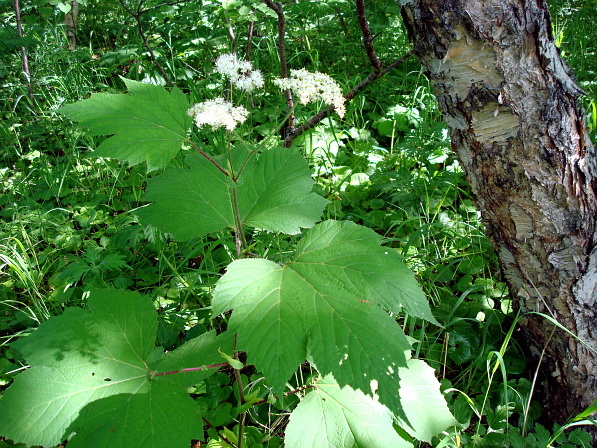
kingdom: Plantae
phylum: Tracheophyta
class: Magnoliopsida
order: Rosales
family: Rosaceae
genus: Filipendula
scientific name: Filipendula camtschatica
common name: Giant meadowsweet
